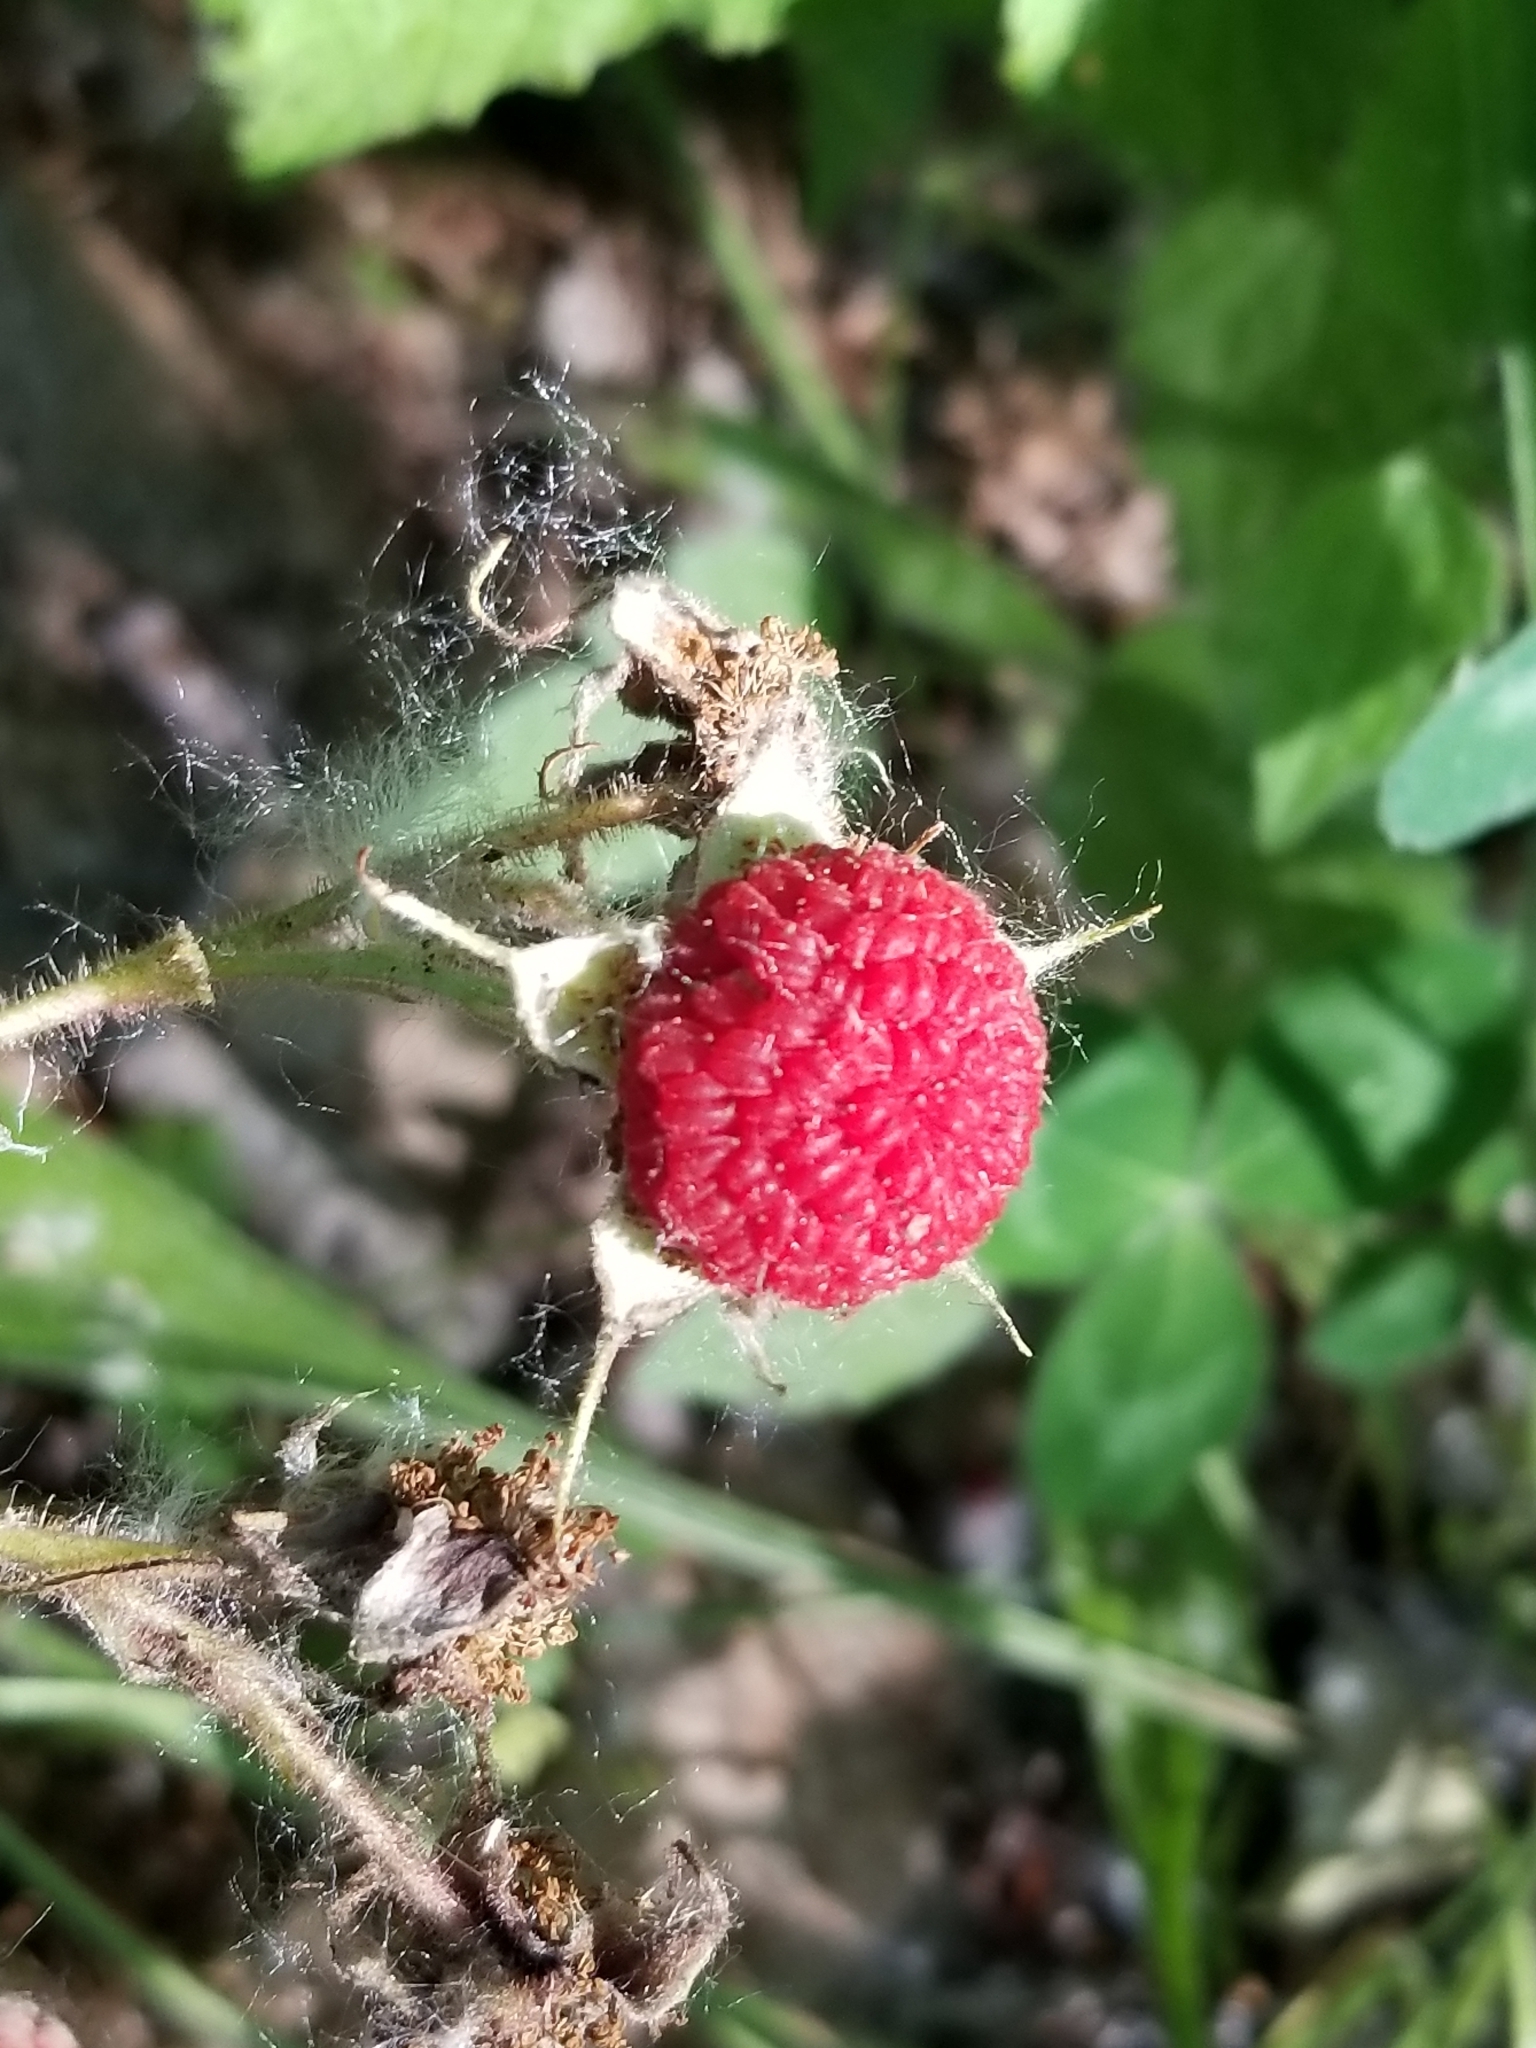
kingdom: Plantae
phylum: Tracheophyta
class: Magnoliopsida
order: Rosales
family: Rosaceae
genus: Rubus
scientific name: Rubus parviflorus
